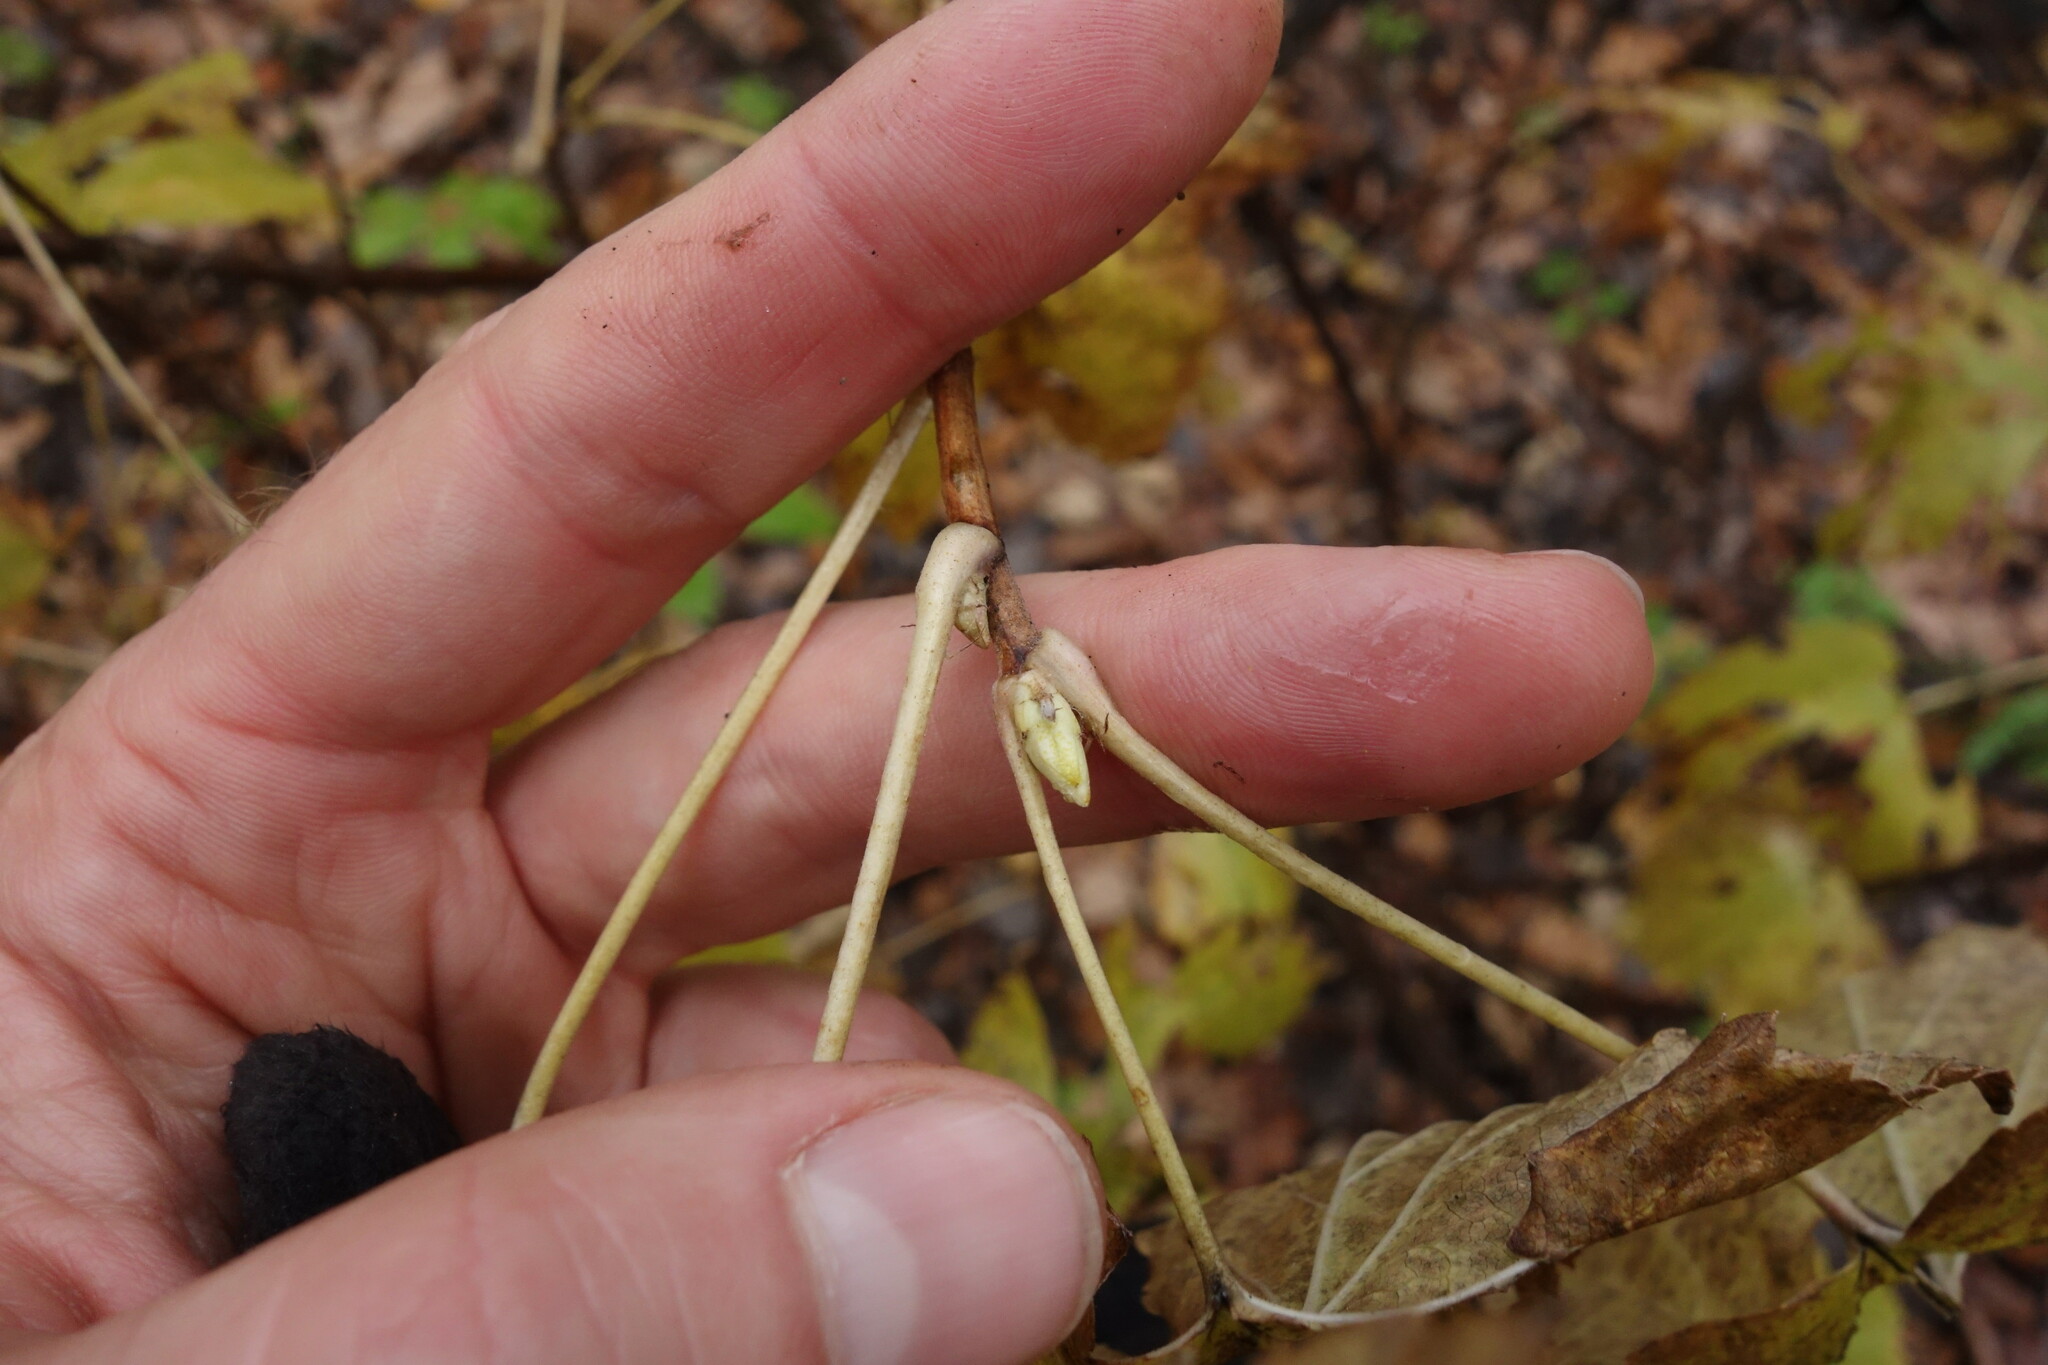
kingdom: Plantae
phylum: Tracheophyta
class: Magnoliopsida
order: Saxifragales
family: Grossulariaceae
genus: Ribes
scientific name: Ribes nigrum
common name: Black currant
